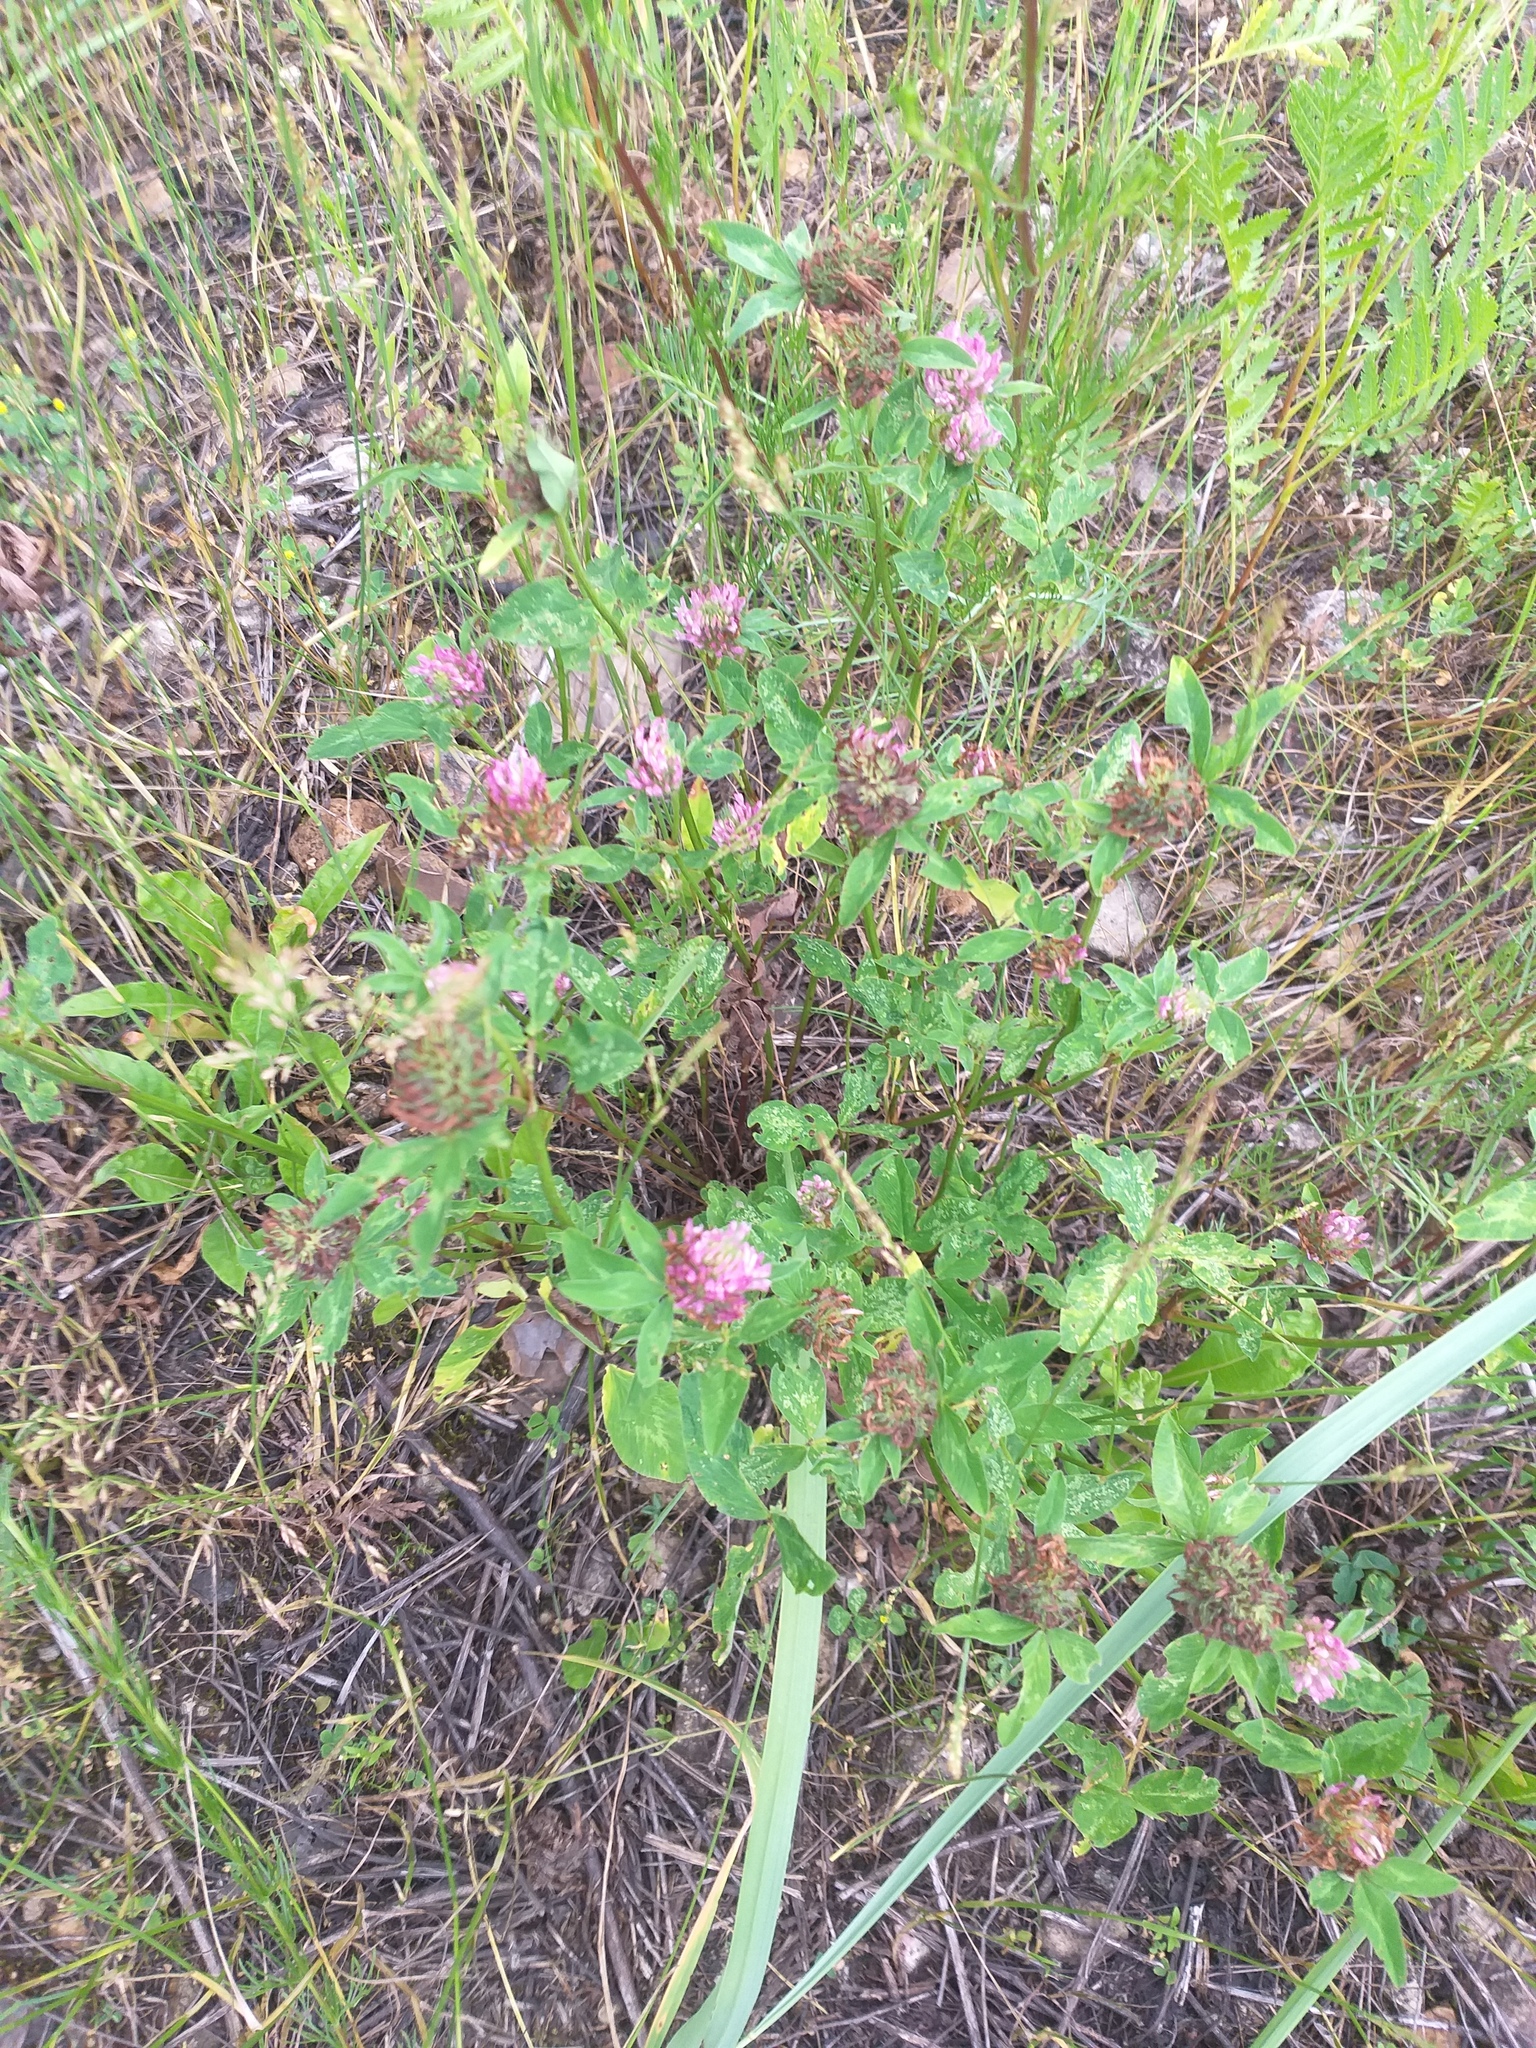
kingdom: Plantae
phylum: Tracheophyta
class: Magnoliopsida
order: Fabales
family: Fabaceae
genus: Trifolium
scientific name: Trifolium pratense
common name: Red clover
